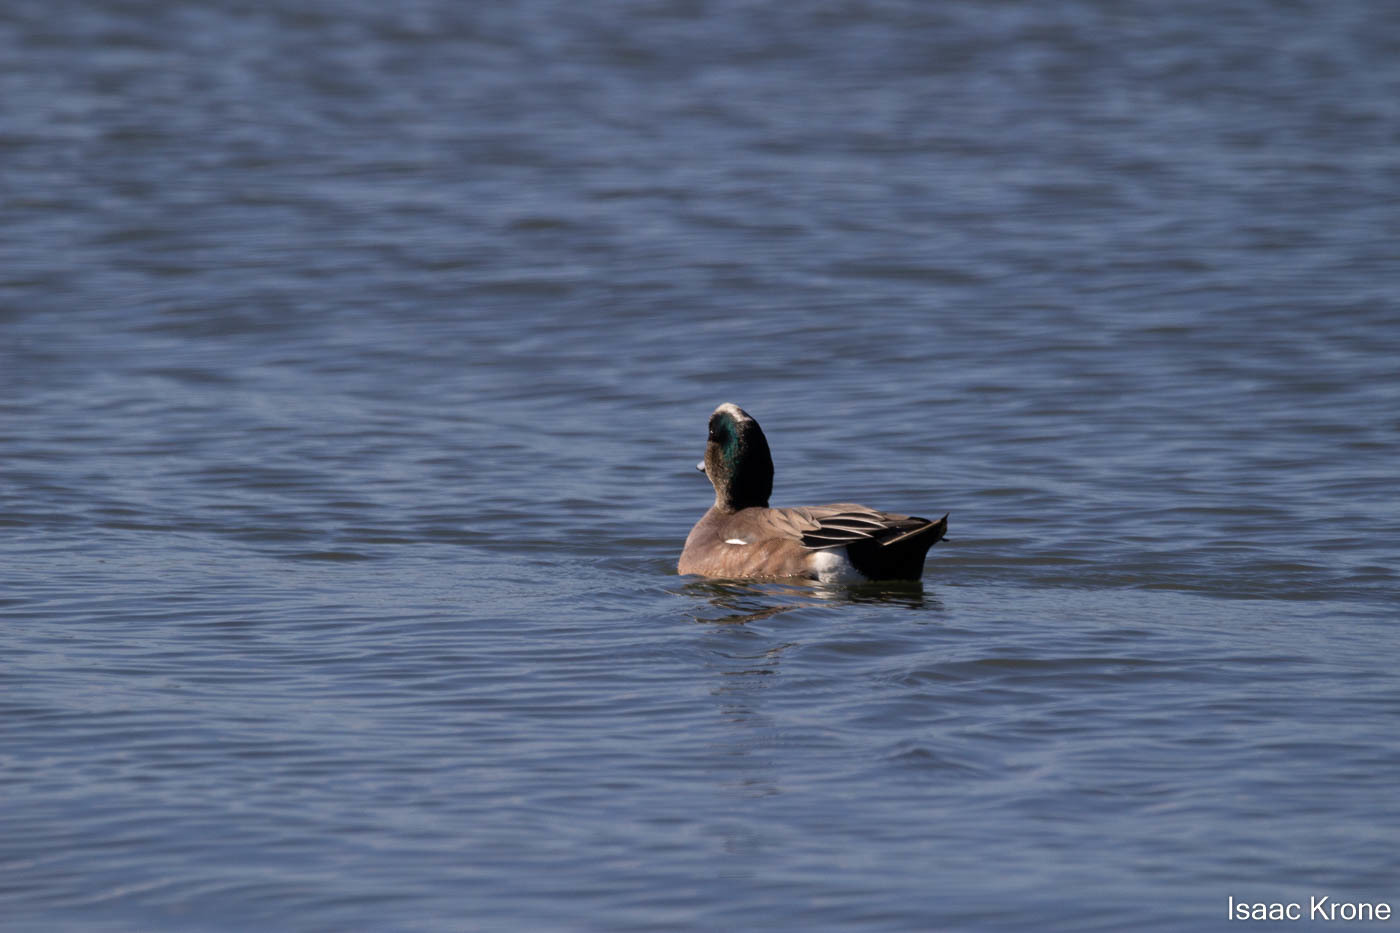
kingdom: Animalia
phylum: Chordata
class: Aves
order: Anseriformes
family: Anatidae
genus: Mareca
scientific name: Mareca americana
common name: American wigeon
